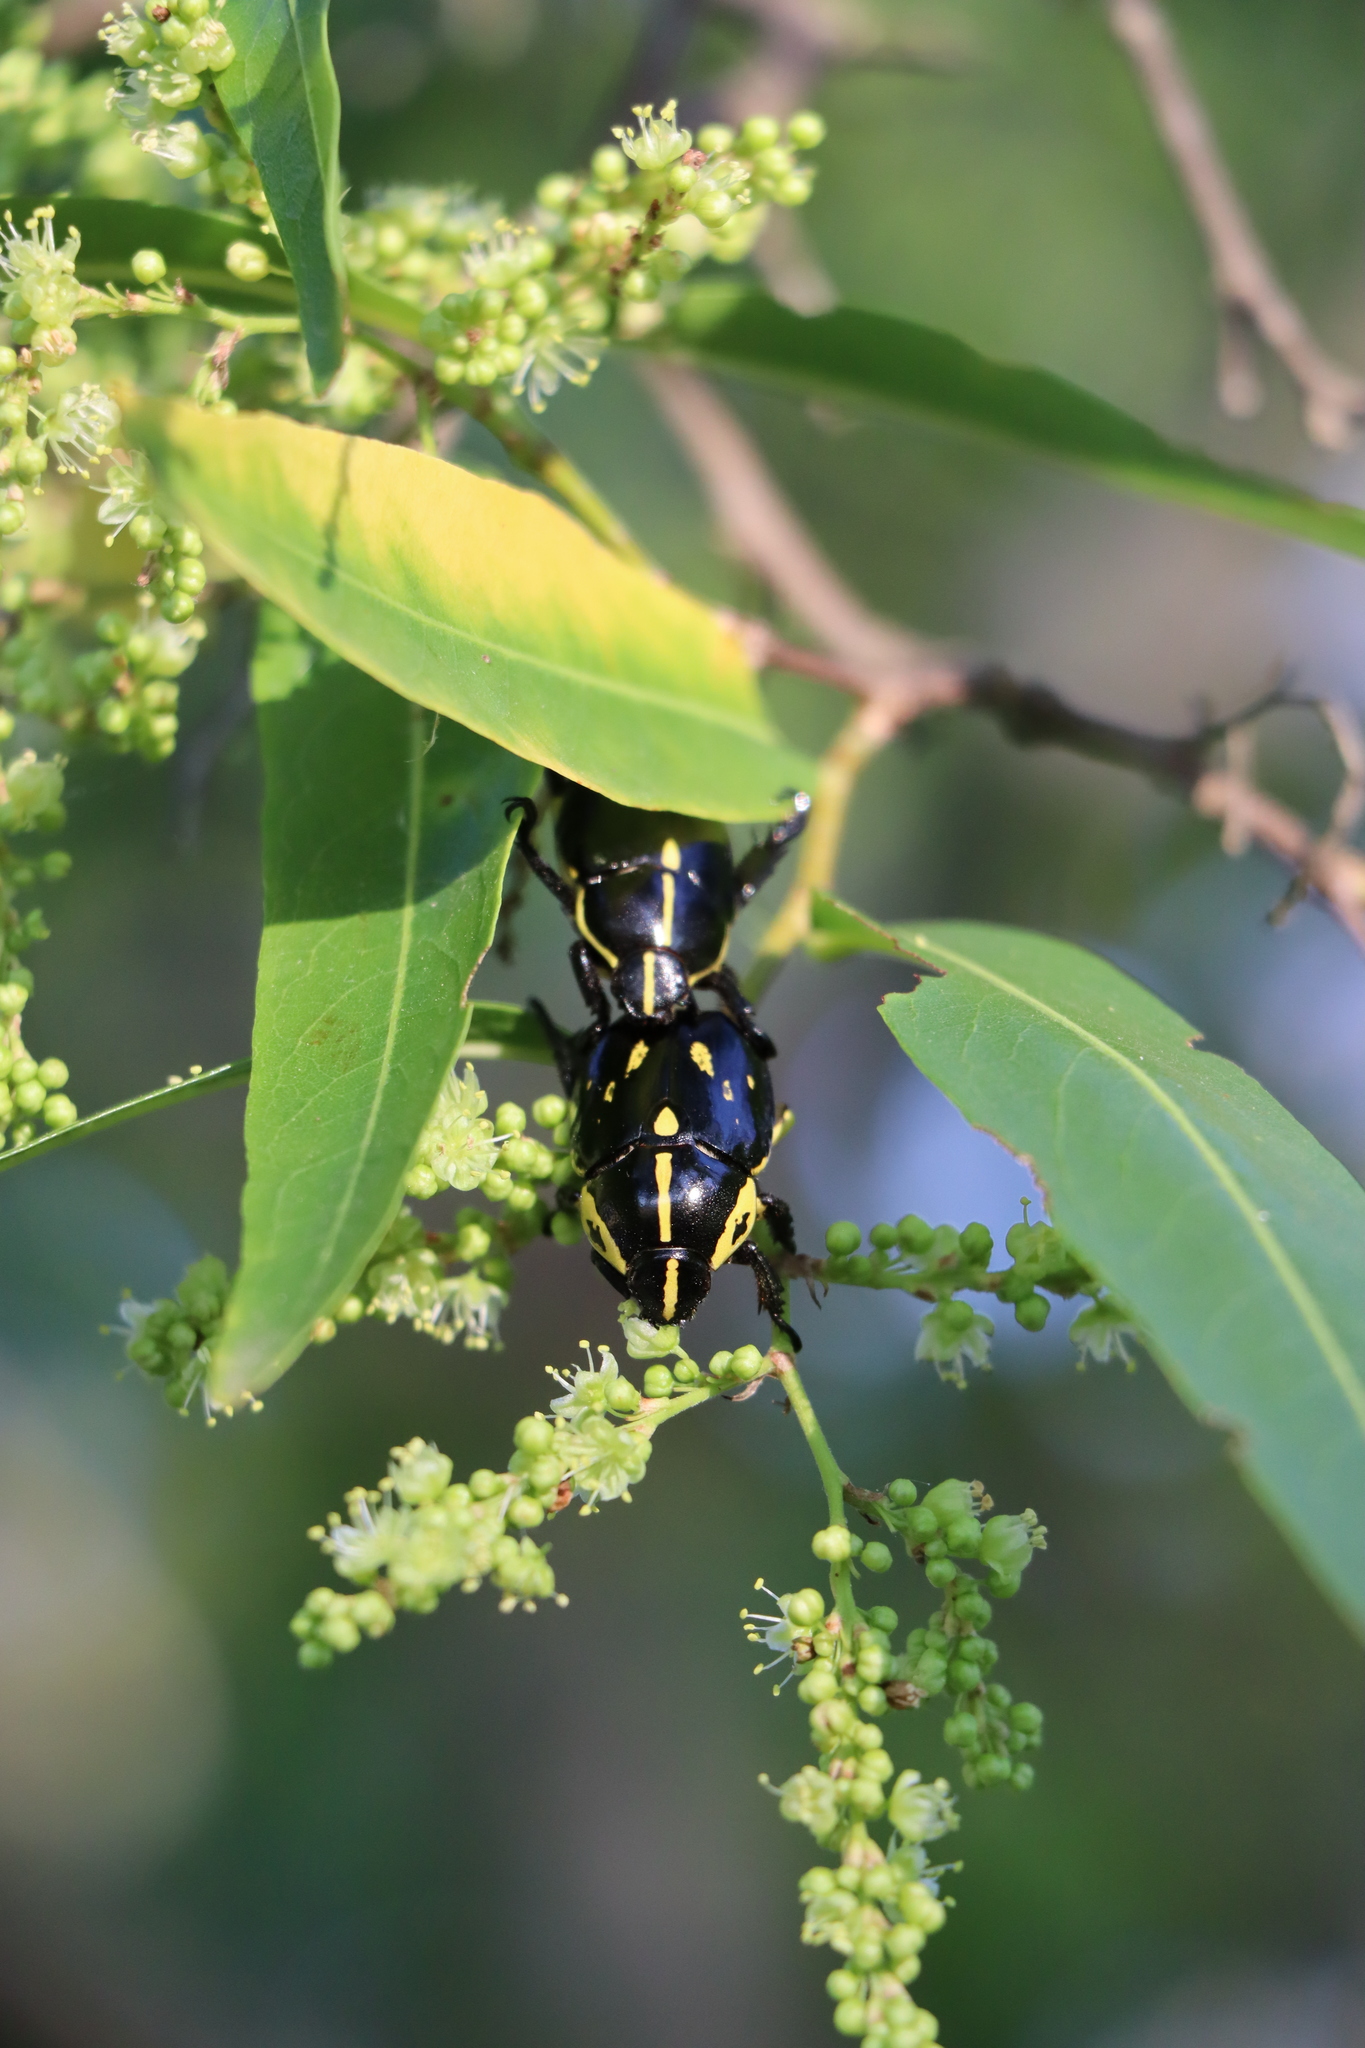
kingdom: Animalia
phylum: Arthropoda
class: Insecta
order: Coleoptera
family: Scarabaeidae
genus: Rutela
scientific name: Rutela lineola
